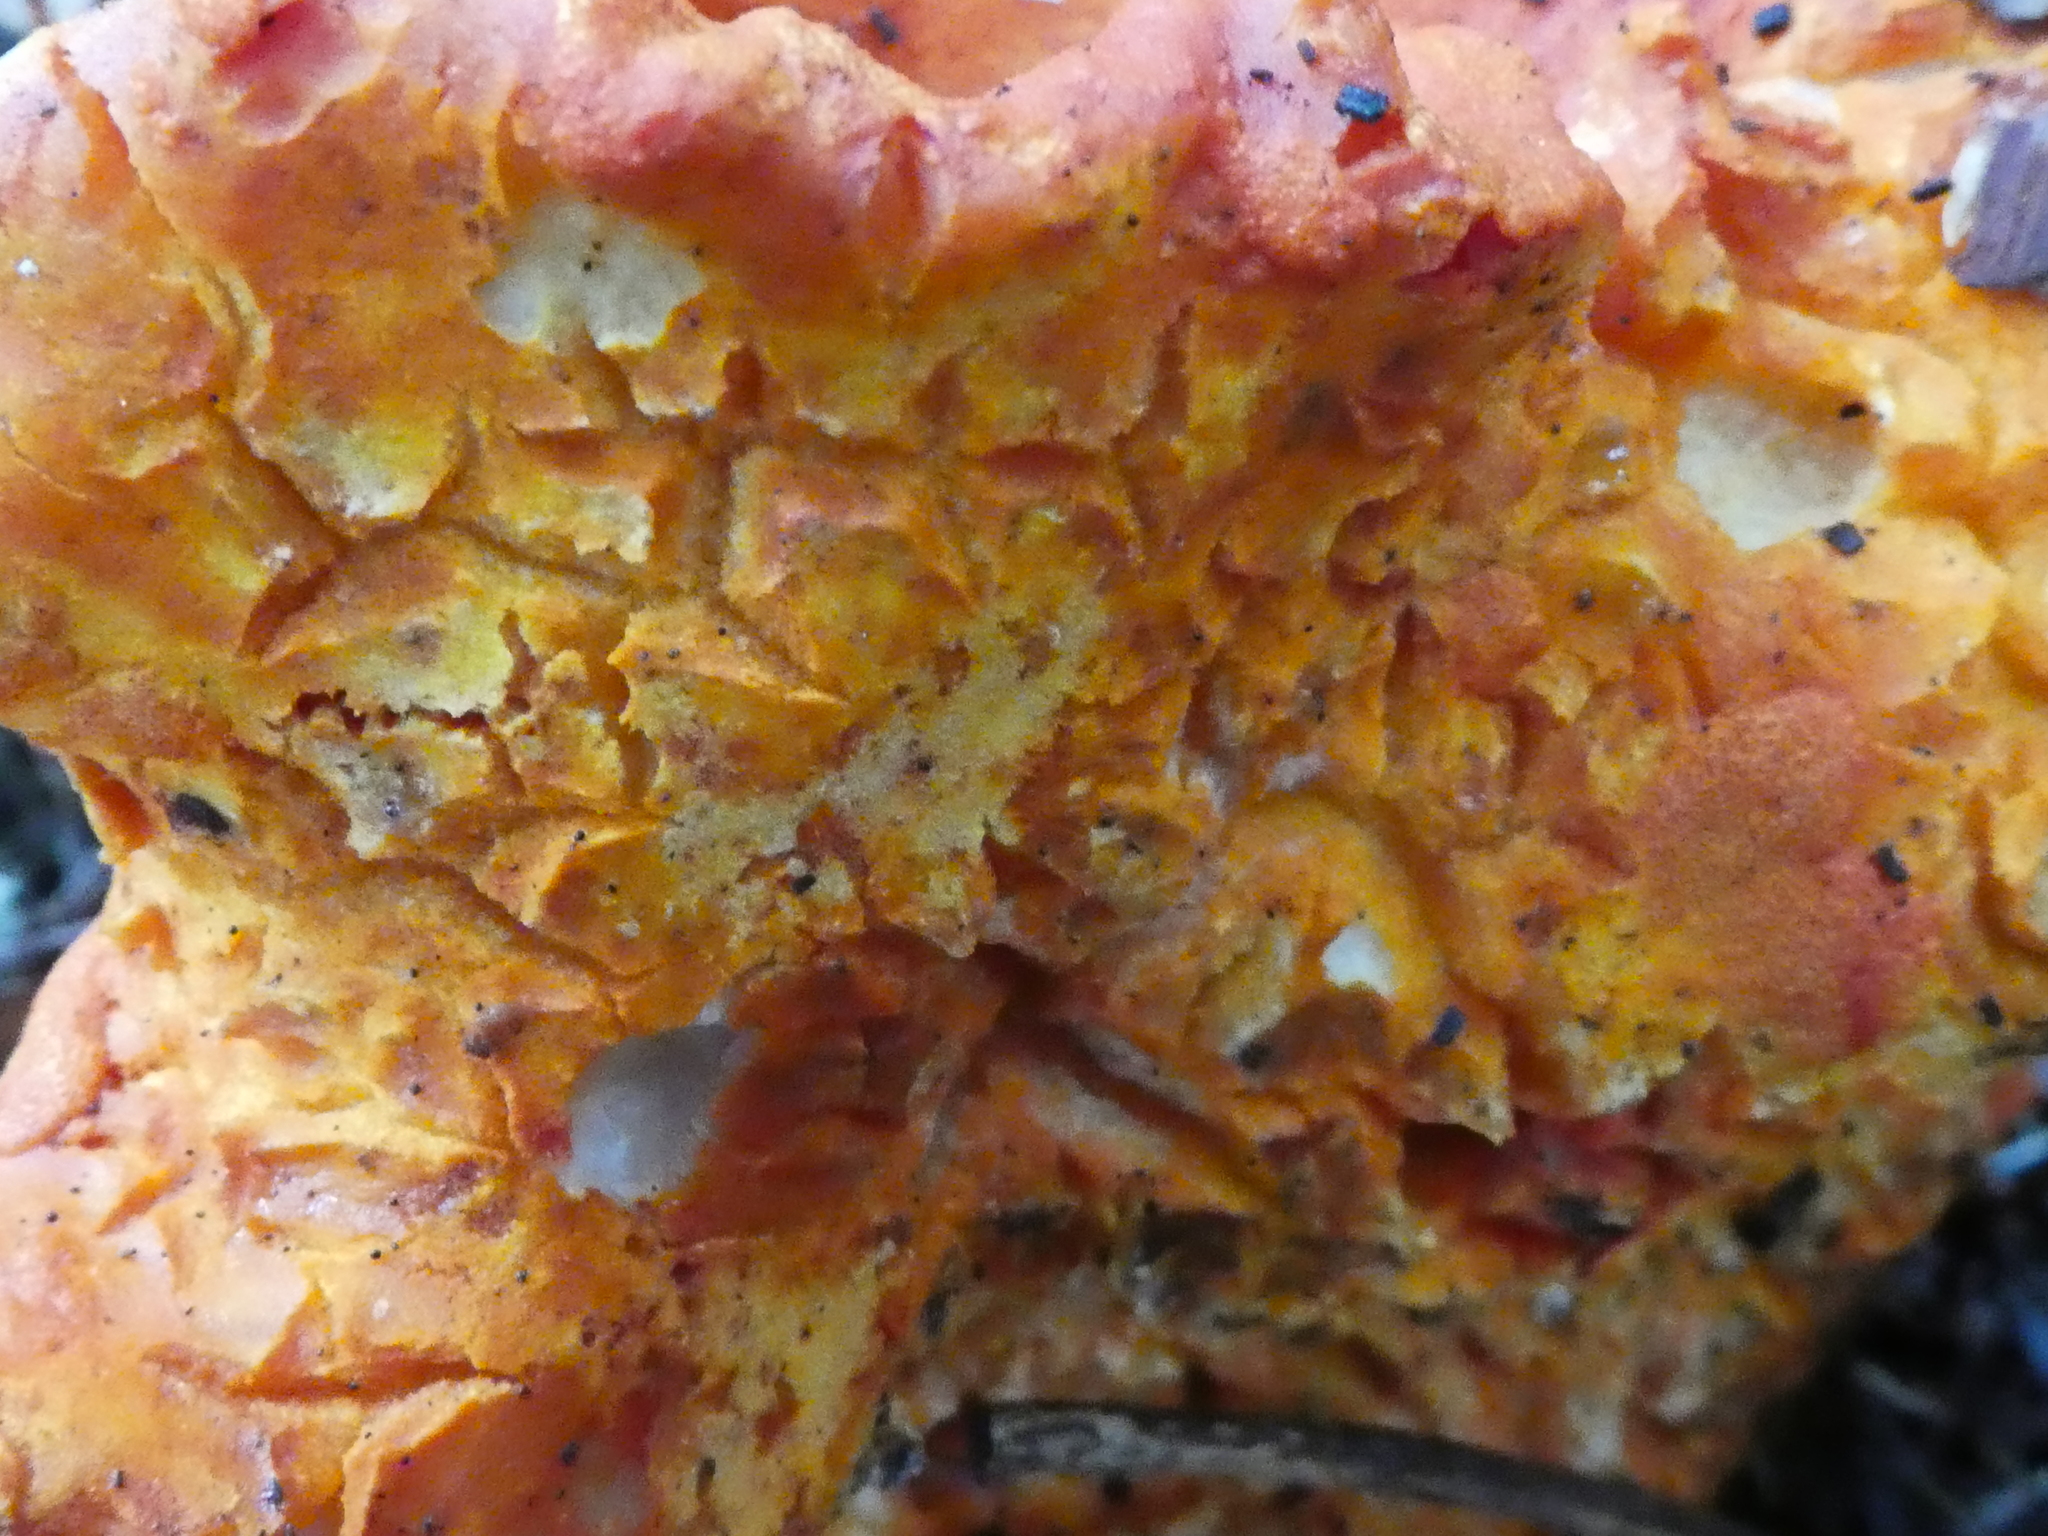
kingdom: Fungi
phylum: Ascomycota
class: Sordariomycetes
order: Hypocreales
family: Hypocreaceae
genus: Hypomyces
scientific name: Hypomyces lactifluorum
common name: Lobster mushroom
